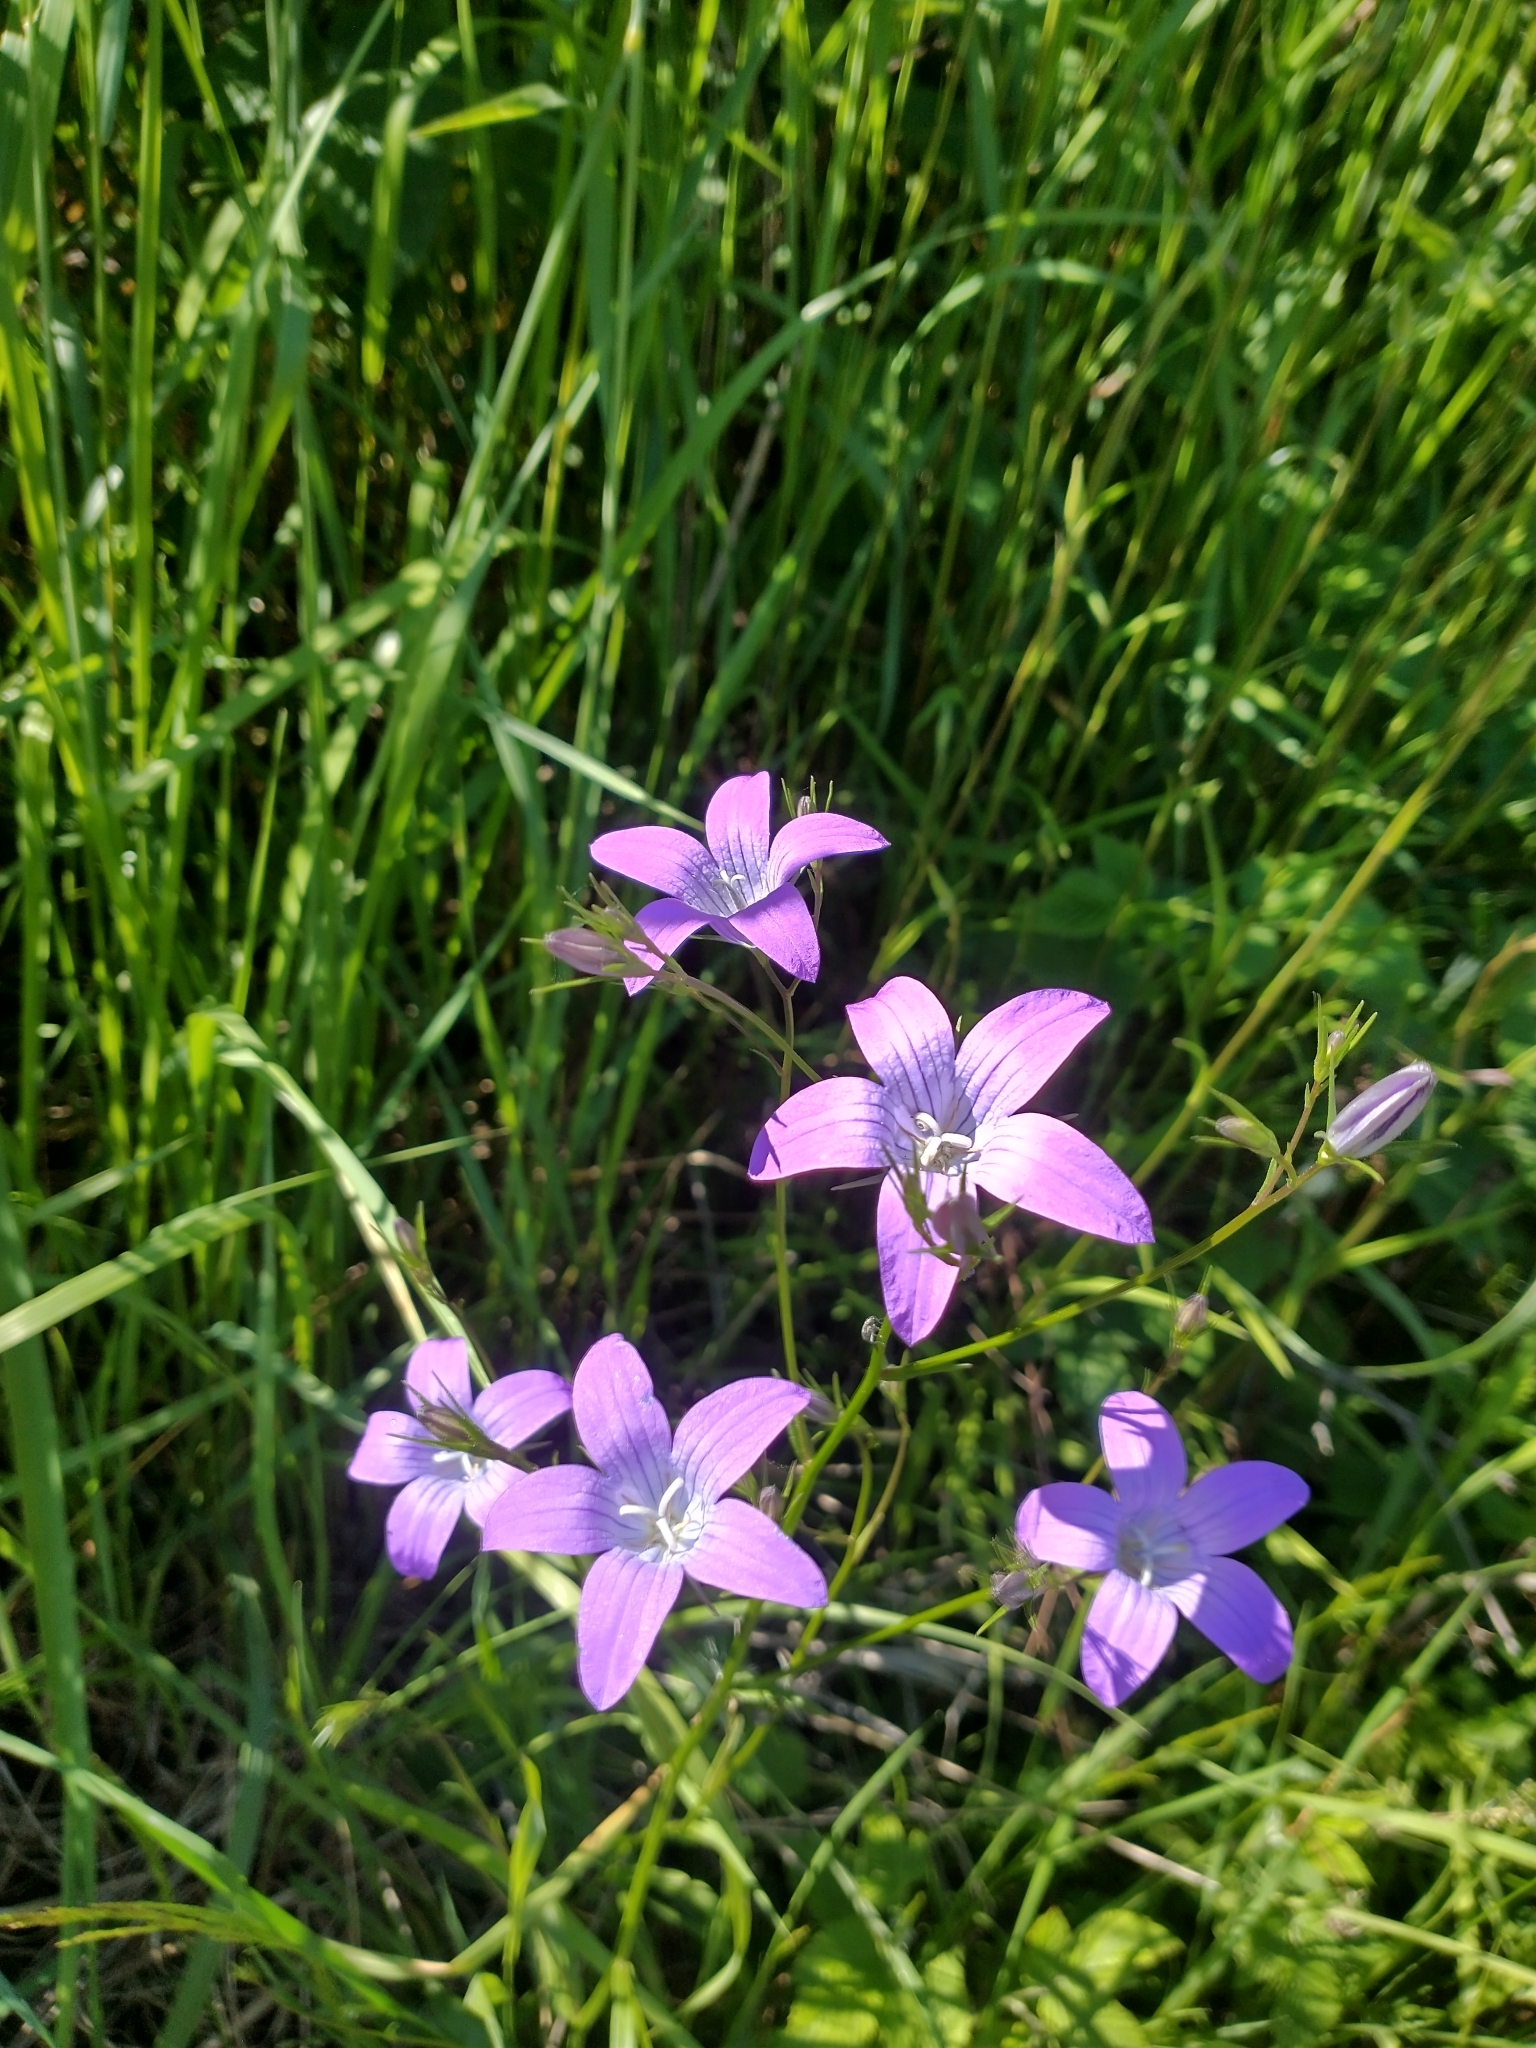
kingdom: Plantae
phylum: Tracheophyta
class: Magnoliopsida
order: Asterales
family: Campanulaceae
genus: Campanula
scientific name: Campanula patula
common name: Spreading bellflower
